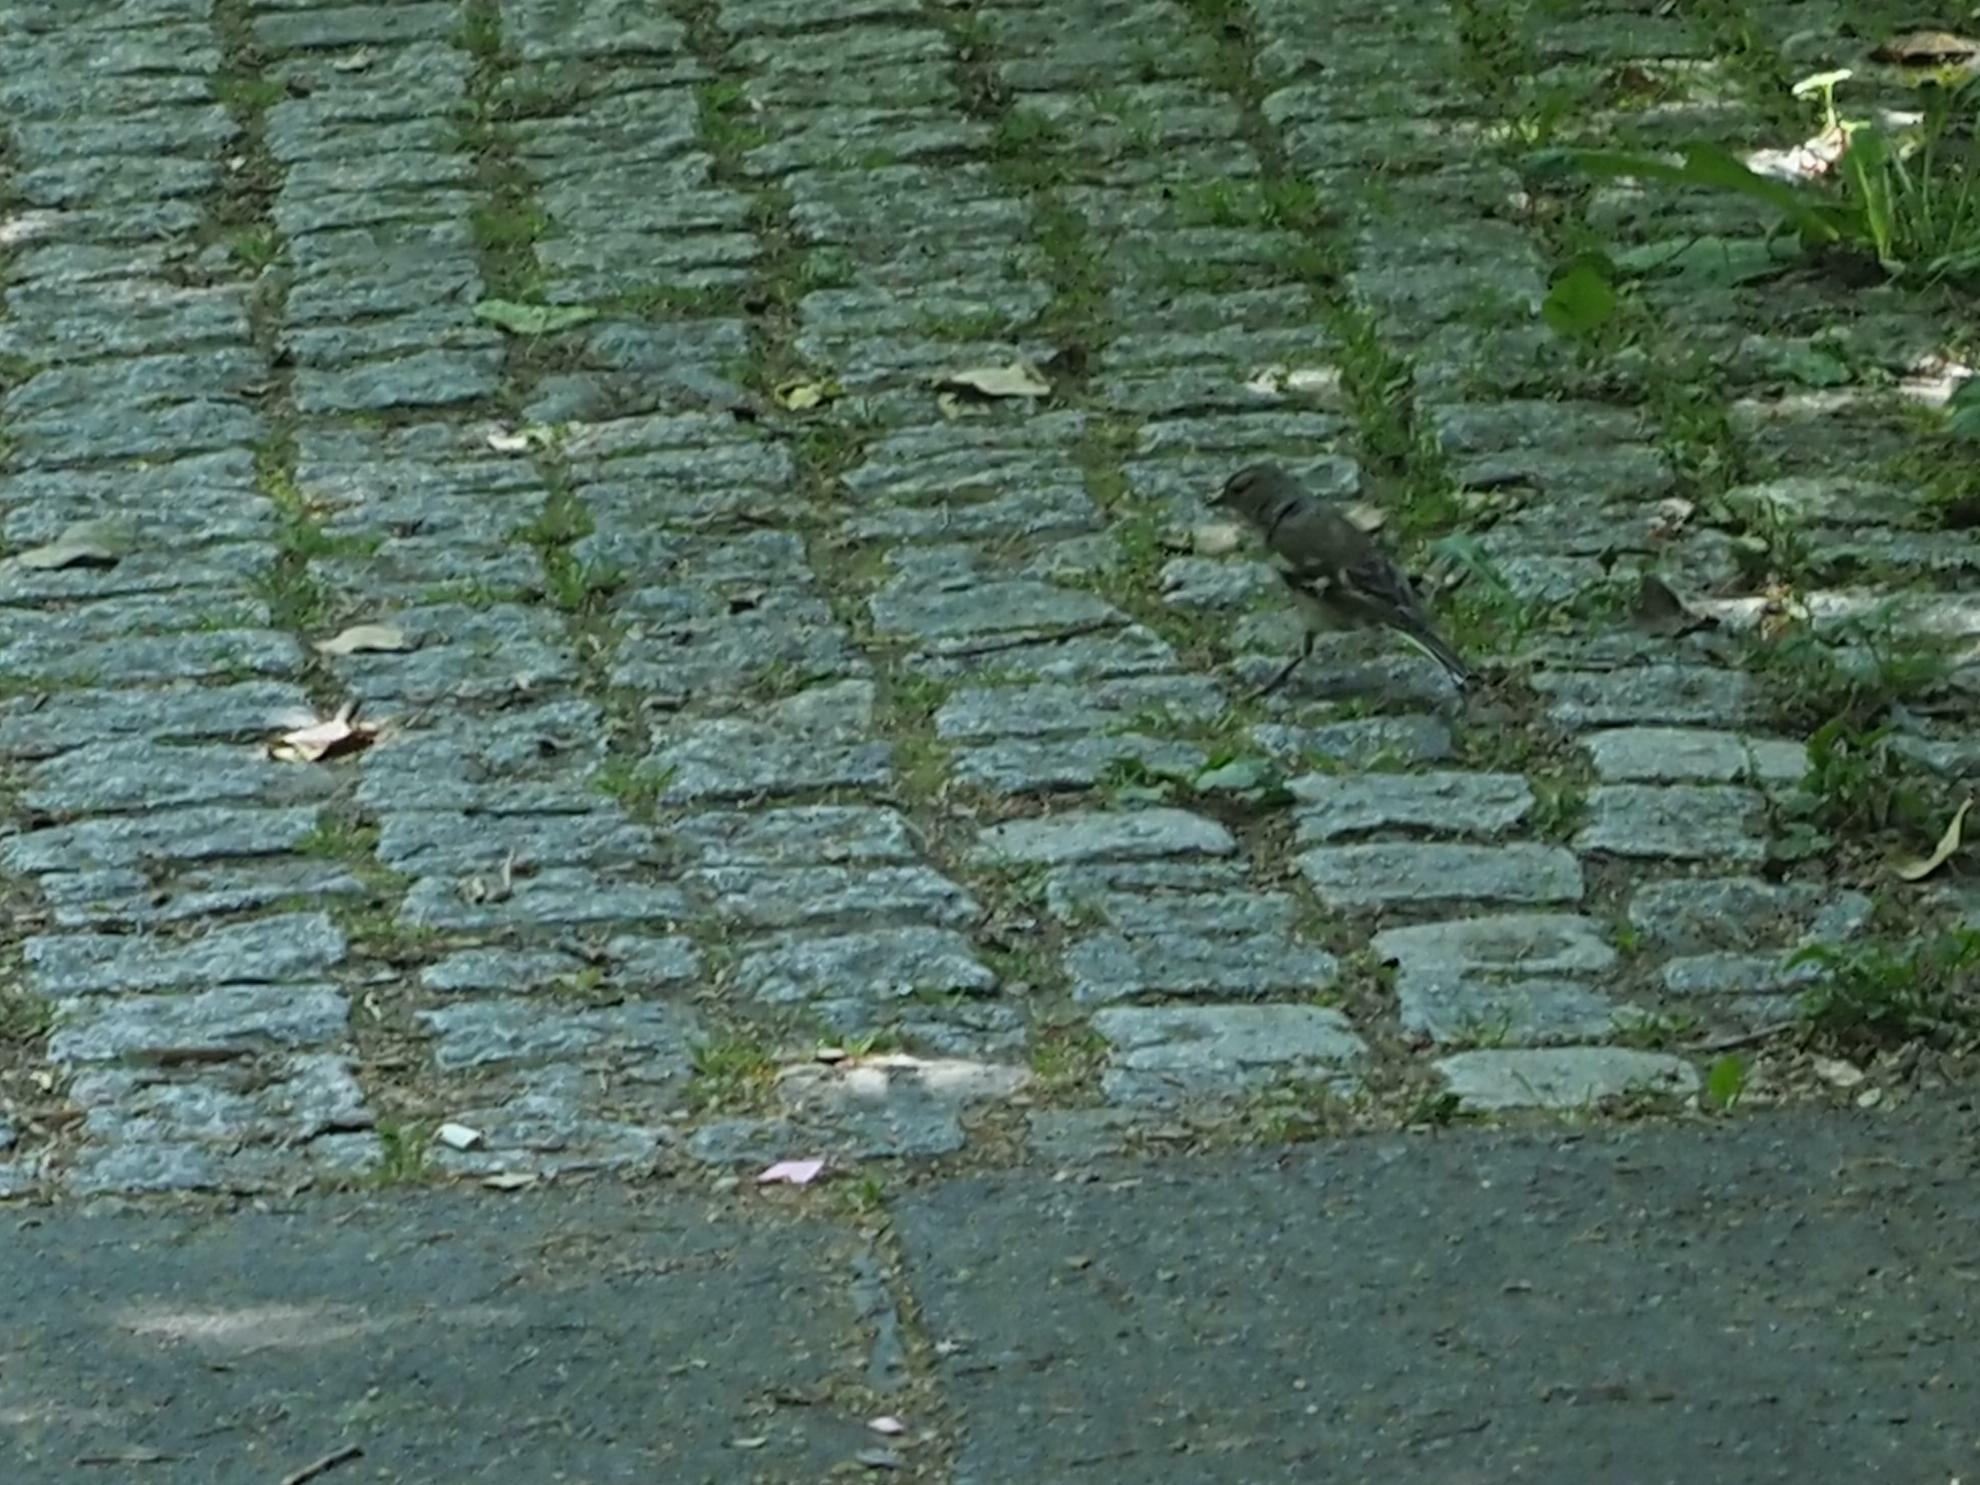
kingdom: Animalia
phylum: Chordata
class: Aves
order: Passeriformes
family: Fringillidae
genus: Fringilla
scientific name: Fringilla coelebs
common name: Common chaffinch
